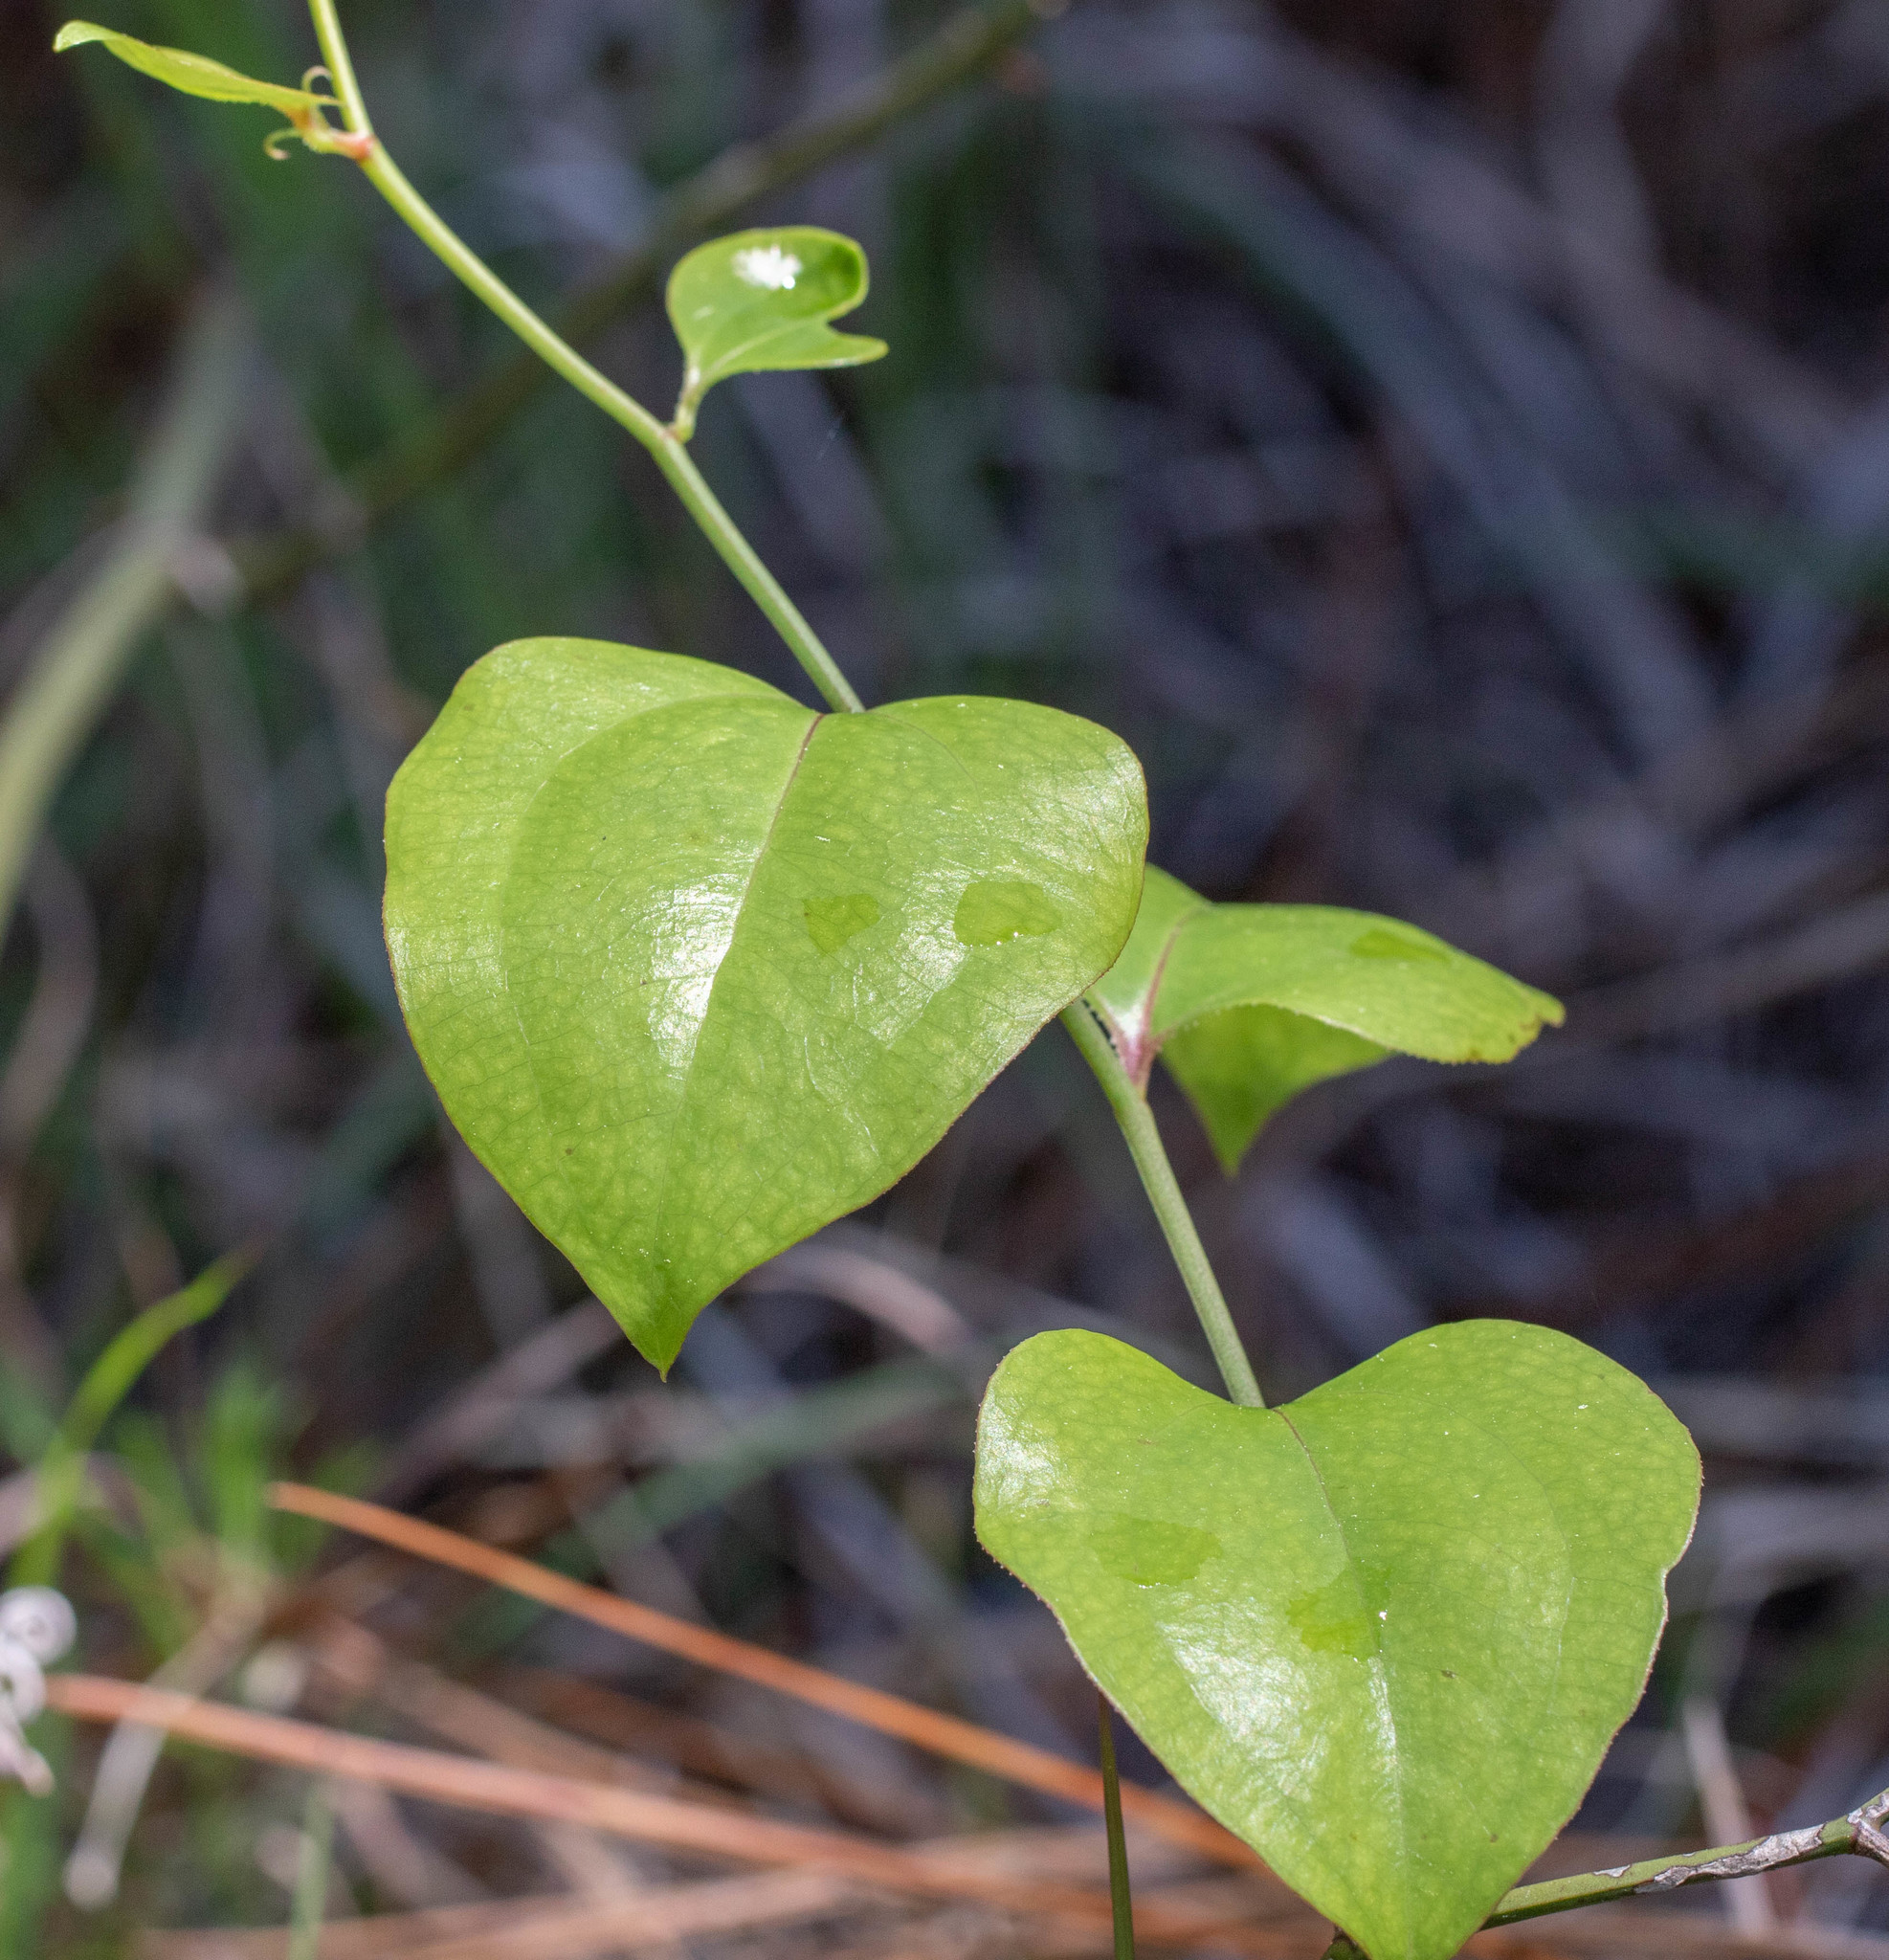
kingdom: Plantae
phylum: Tracheophyta
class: Liliopsida
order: Liliales
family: Smilacaceae
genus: Smilax
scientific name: Smilax rotundifolia
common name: Bullbriar
